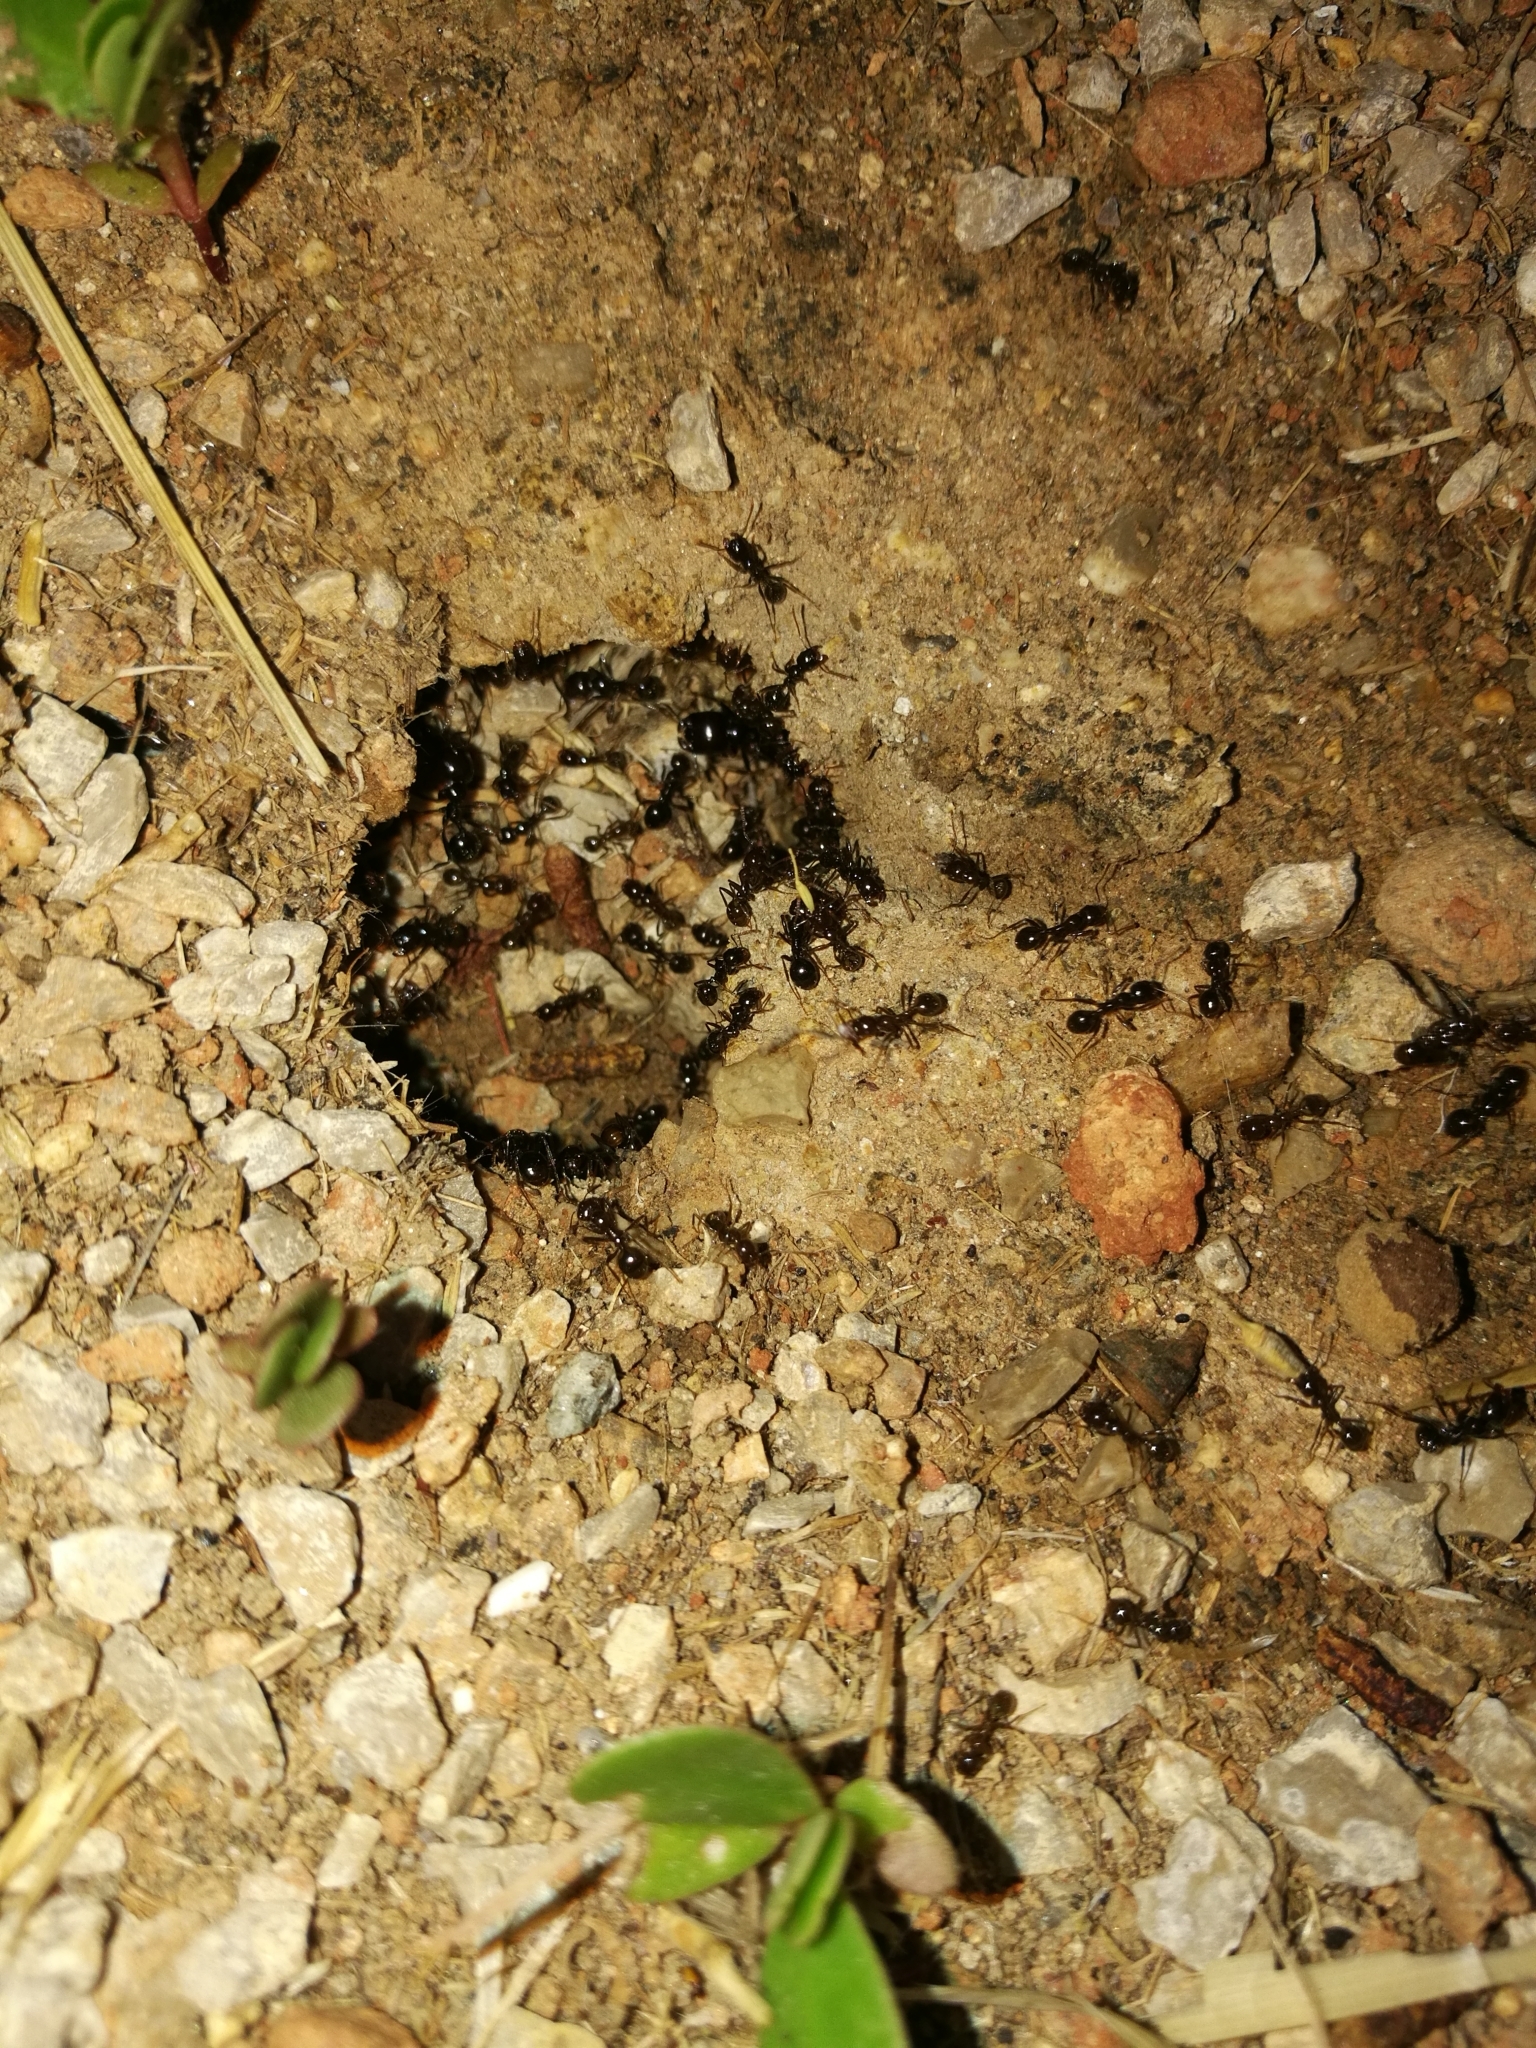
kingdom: Animalia
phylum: Arthropoda
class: Insecta
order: Hymenoptera
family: Formicidae
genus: Messor
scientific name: Messor bouvieri
